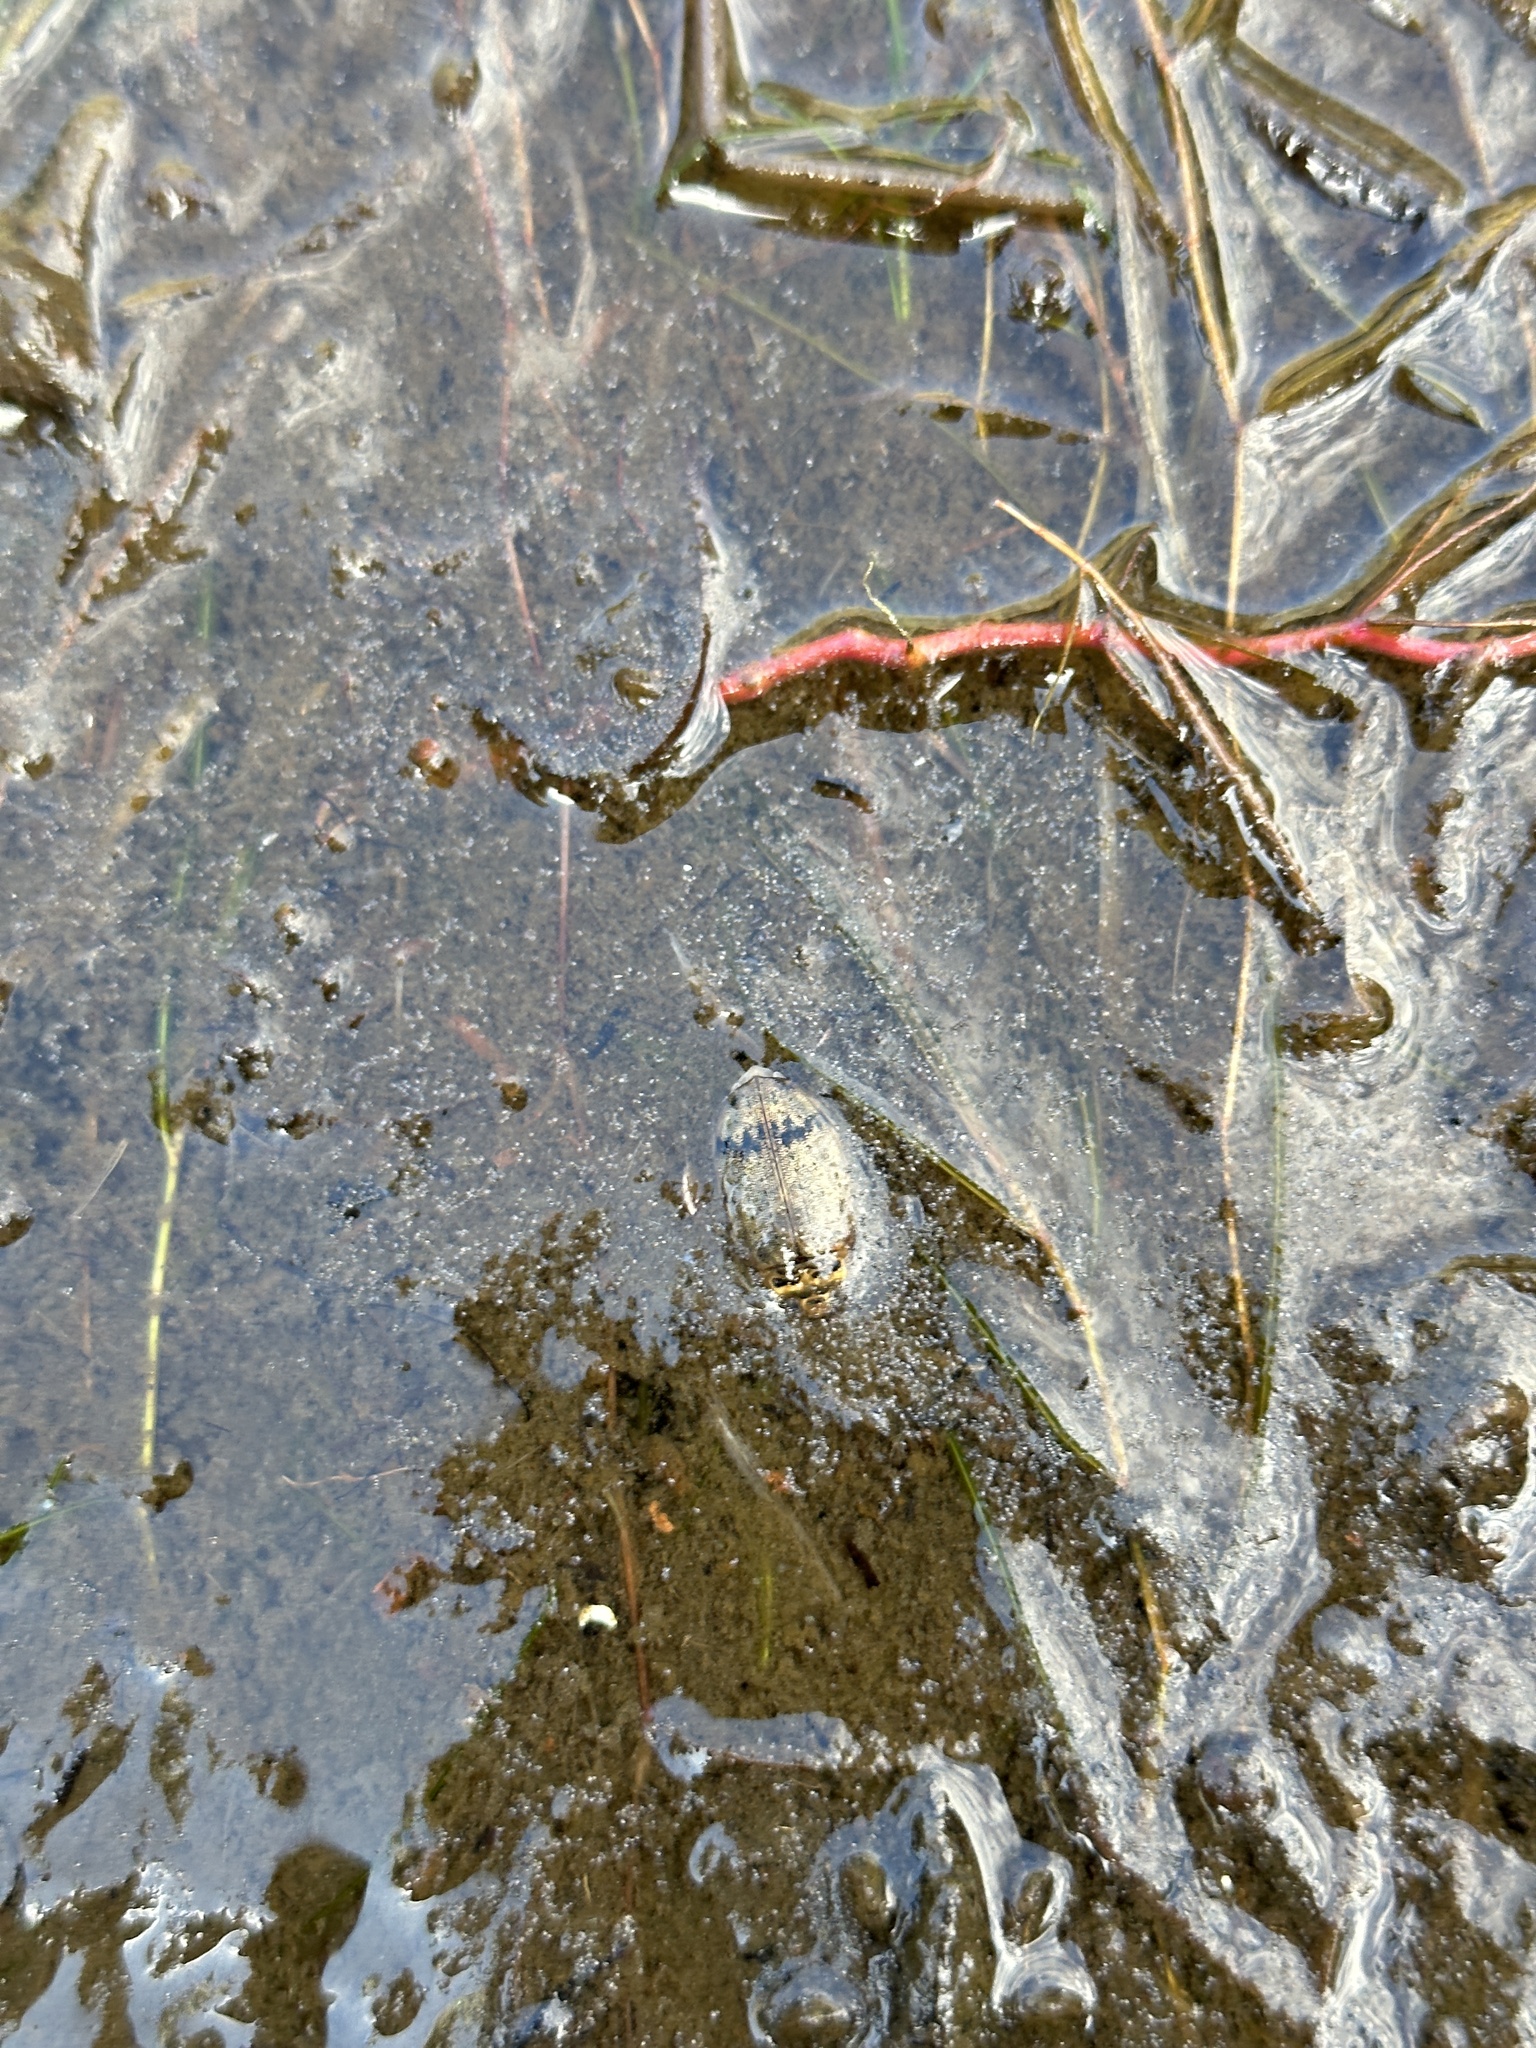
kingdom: Animalia
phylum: Arthropoda
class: Insecta
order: Coleoptera
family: Dytiscidae
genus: Eretes
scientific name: Eretes griseus
